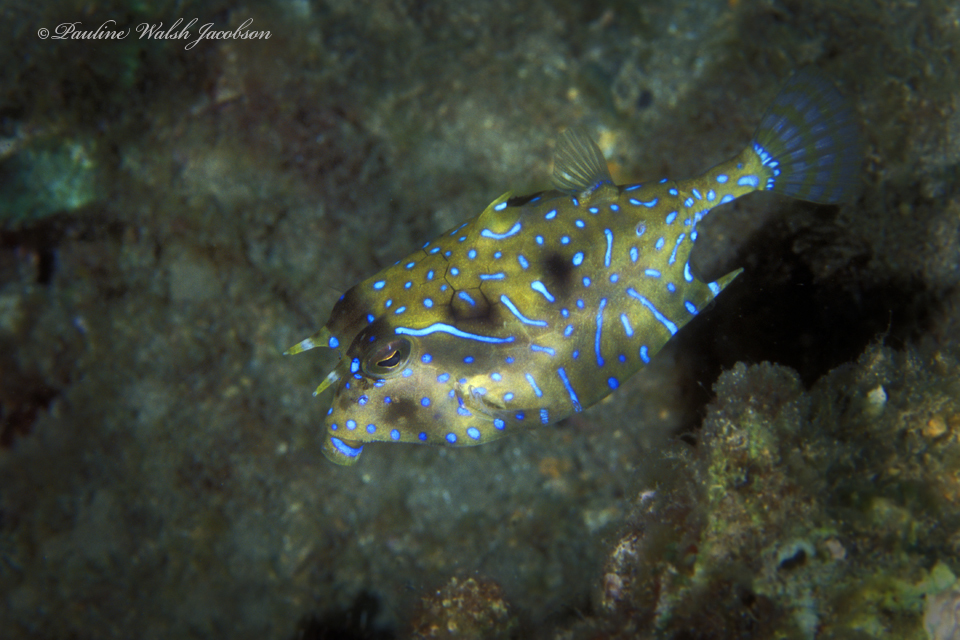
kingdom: Animalia
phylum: Chordata
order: Tetraodontiformes
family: Ostraciidae
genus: Lactoria
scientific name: Lactoria fornasini
